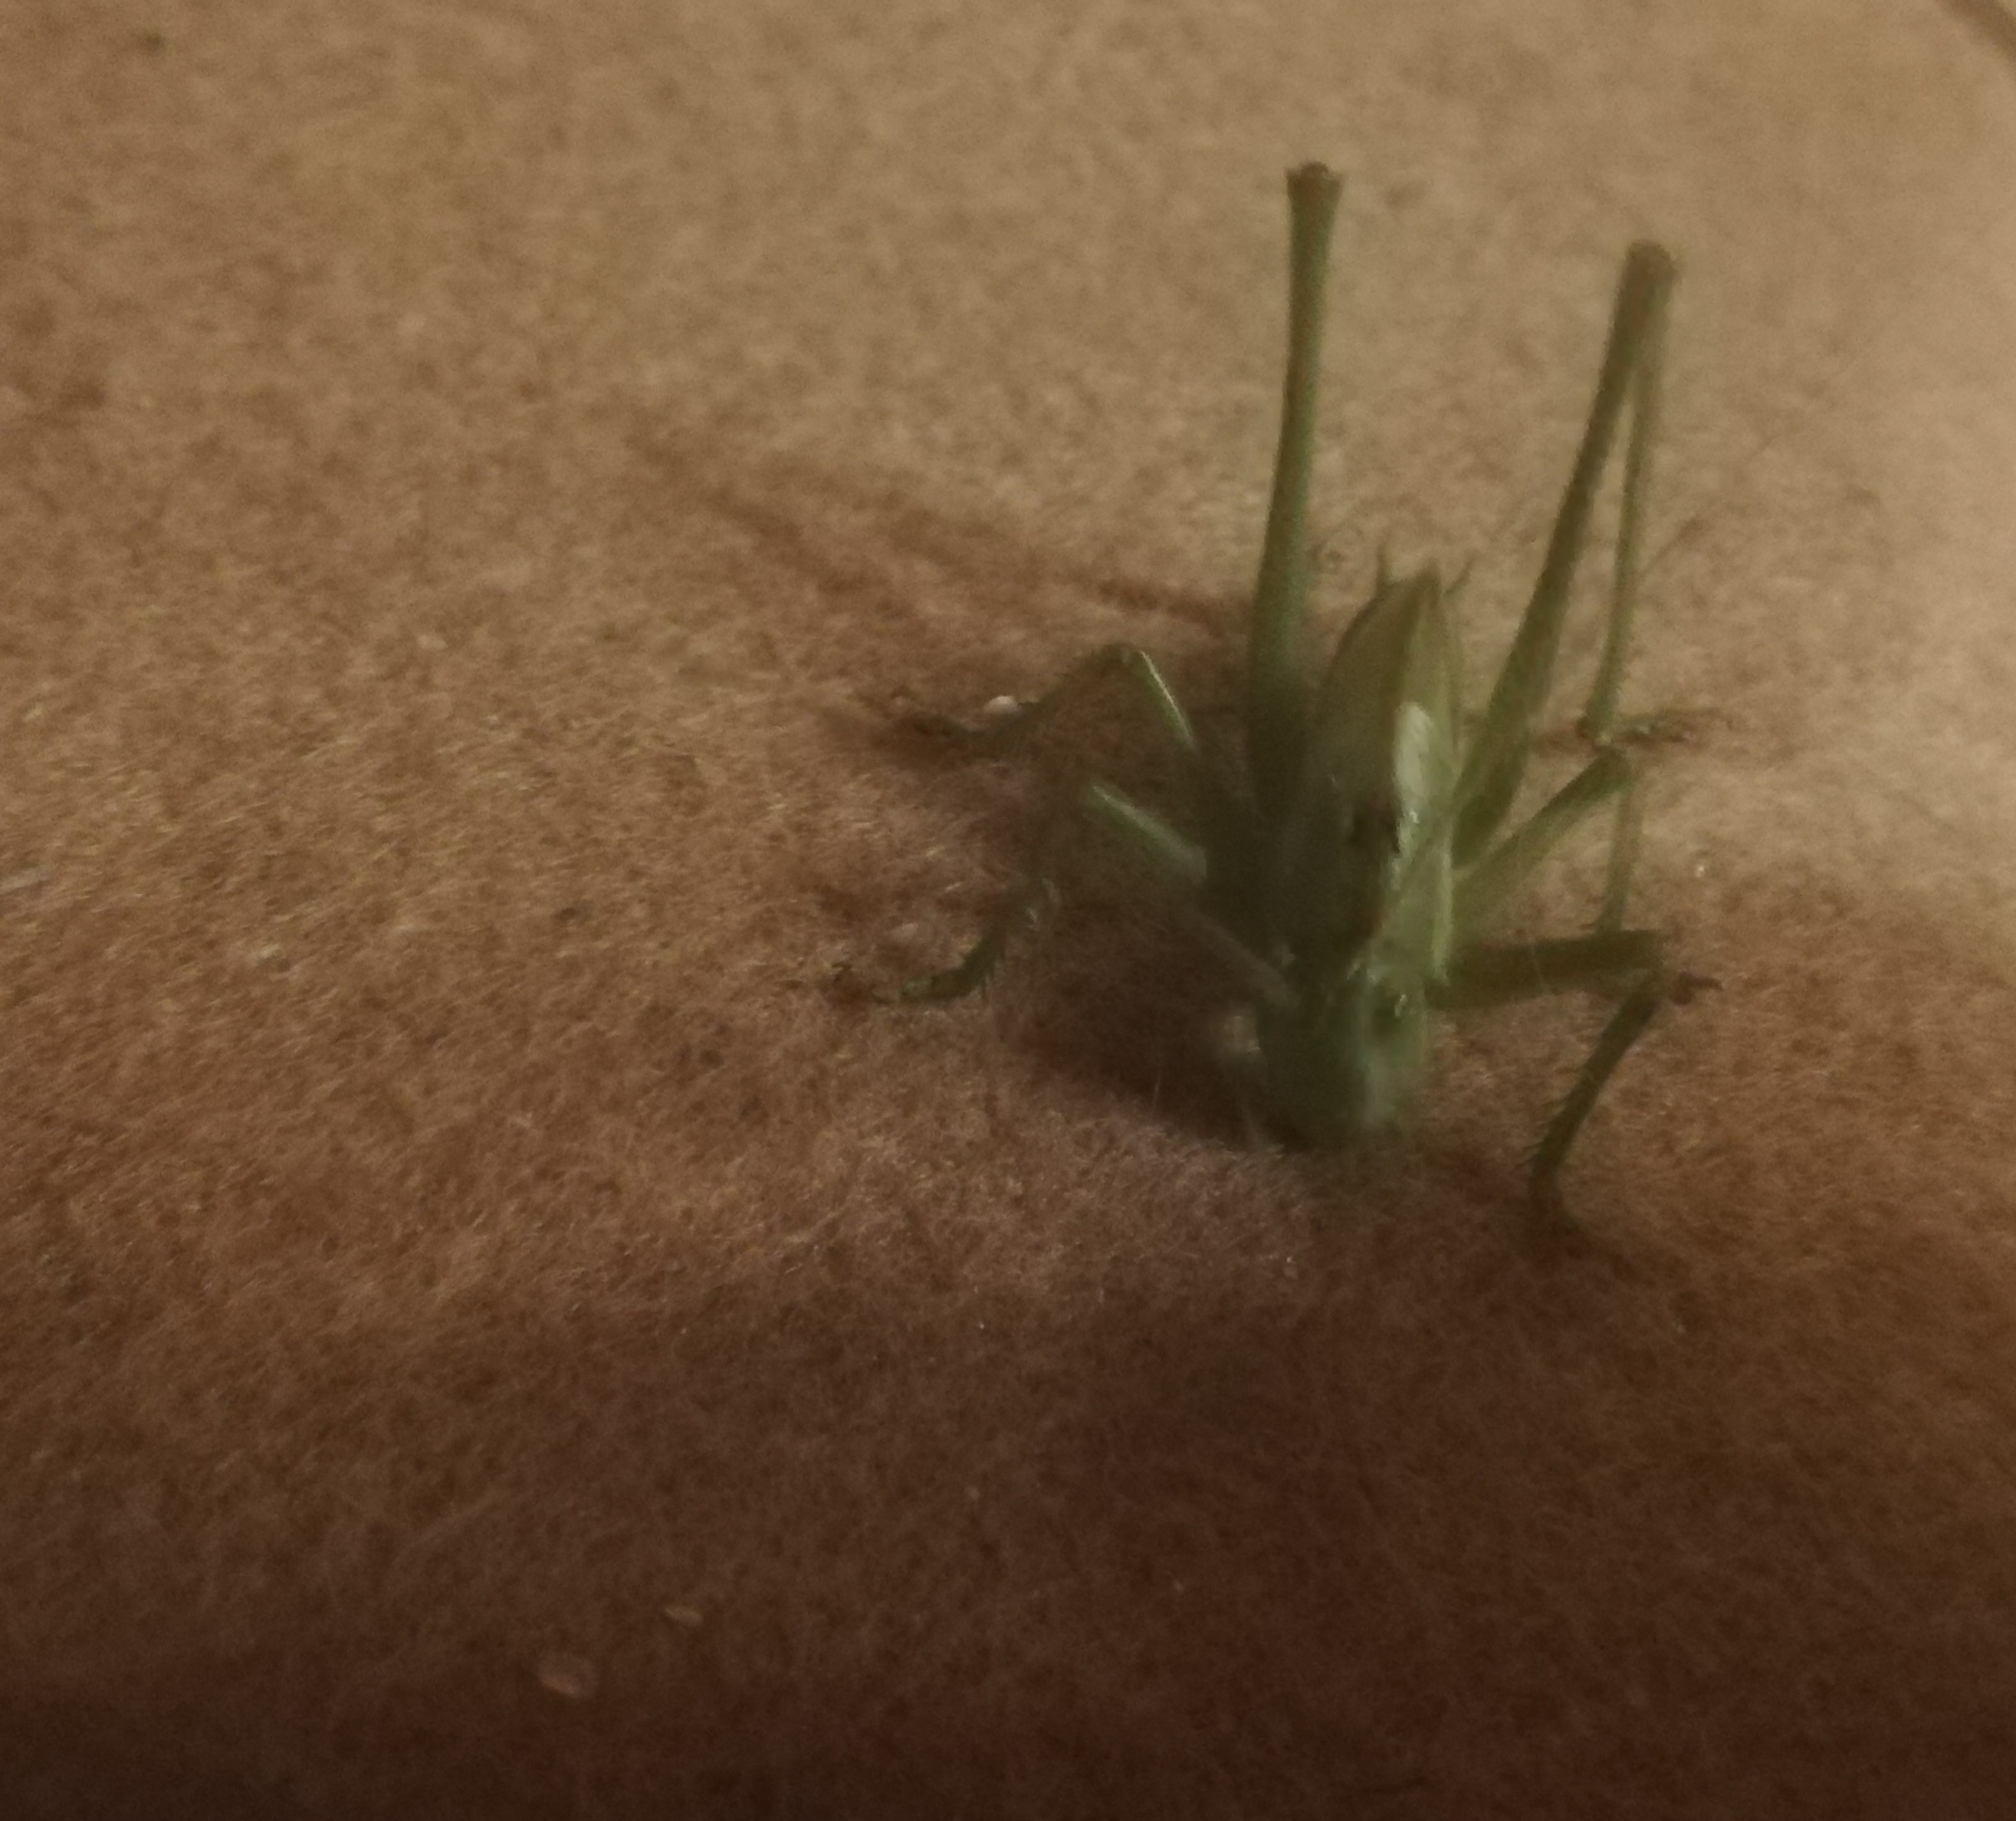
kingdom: Animalia
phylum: Arthropoda
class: Insecta
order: Orthoptera
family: Tettigoniidae
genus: Tettigonia
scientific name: Tettigonia viridissima
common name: Great green bush-cricket
